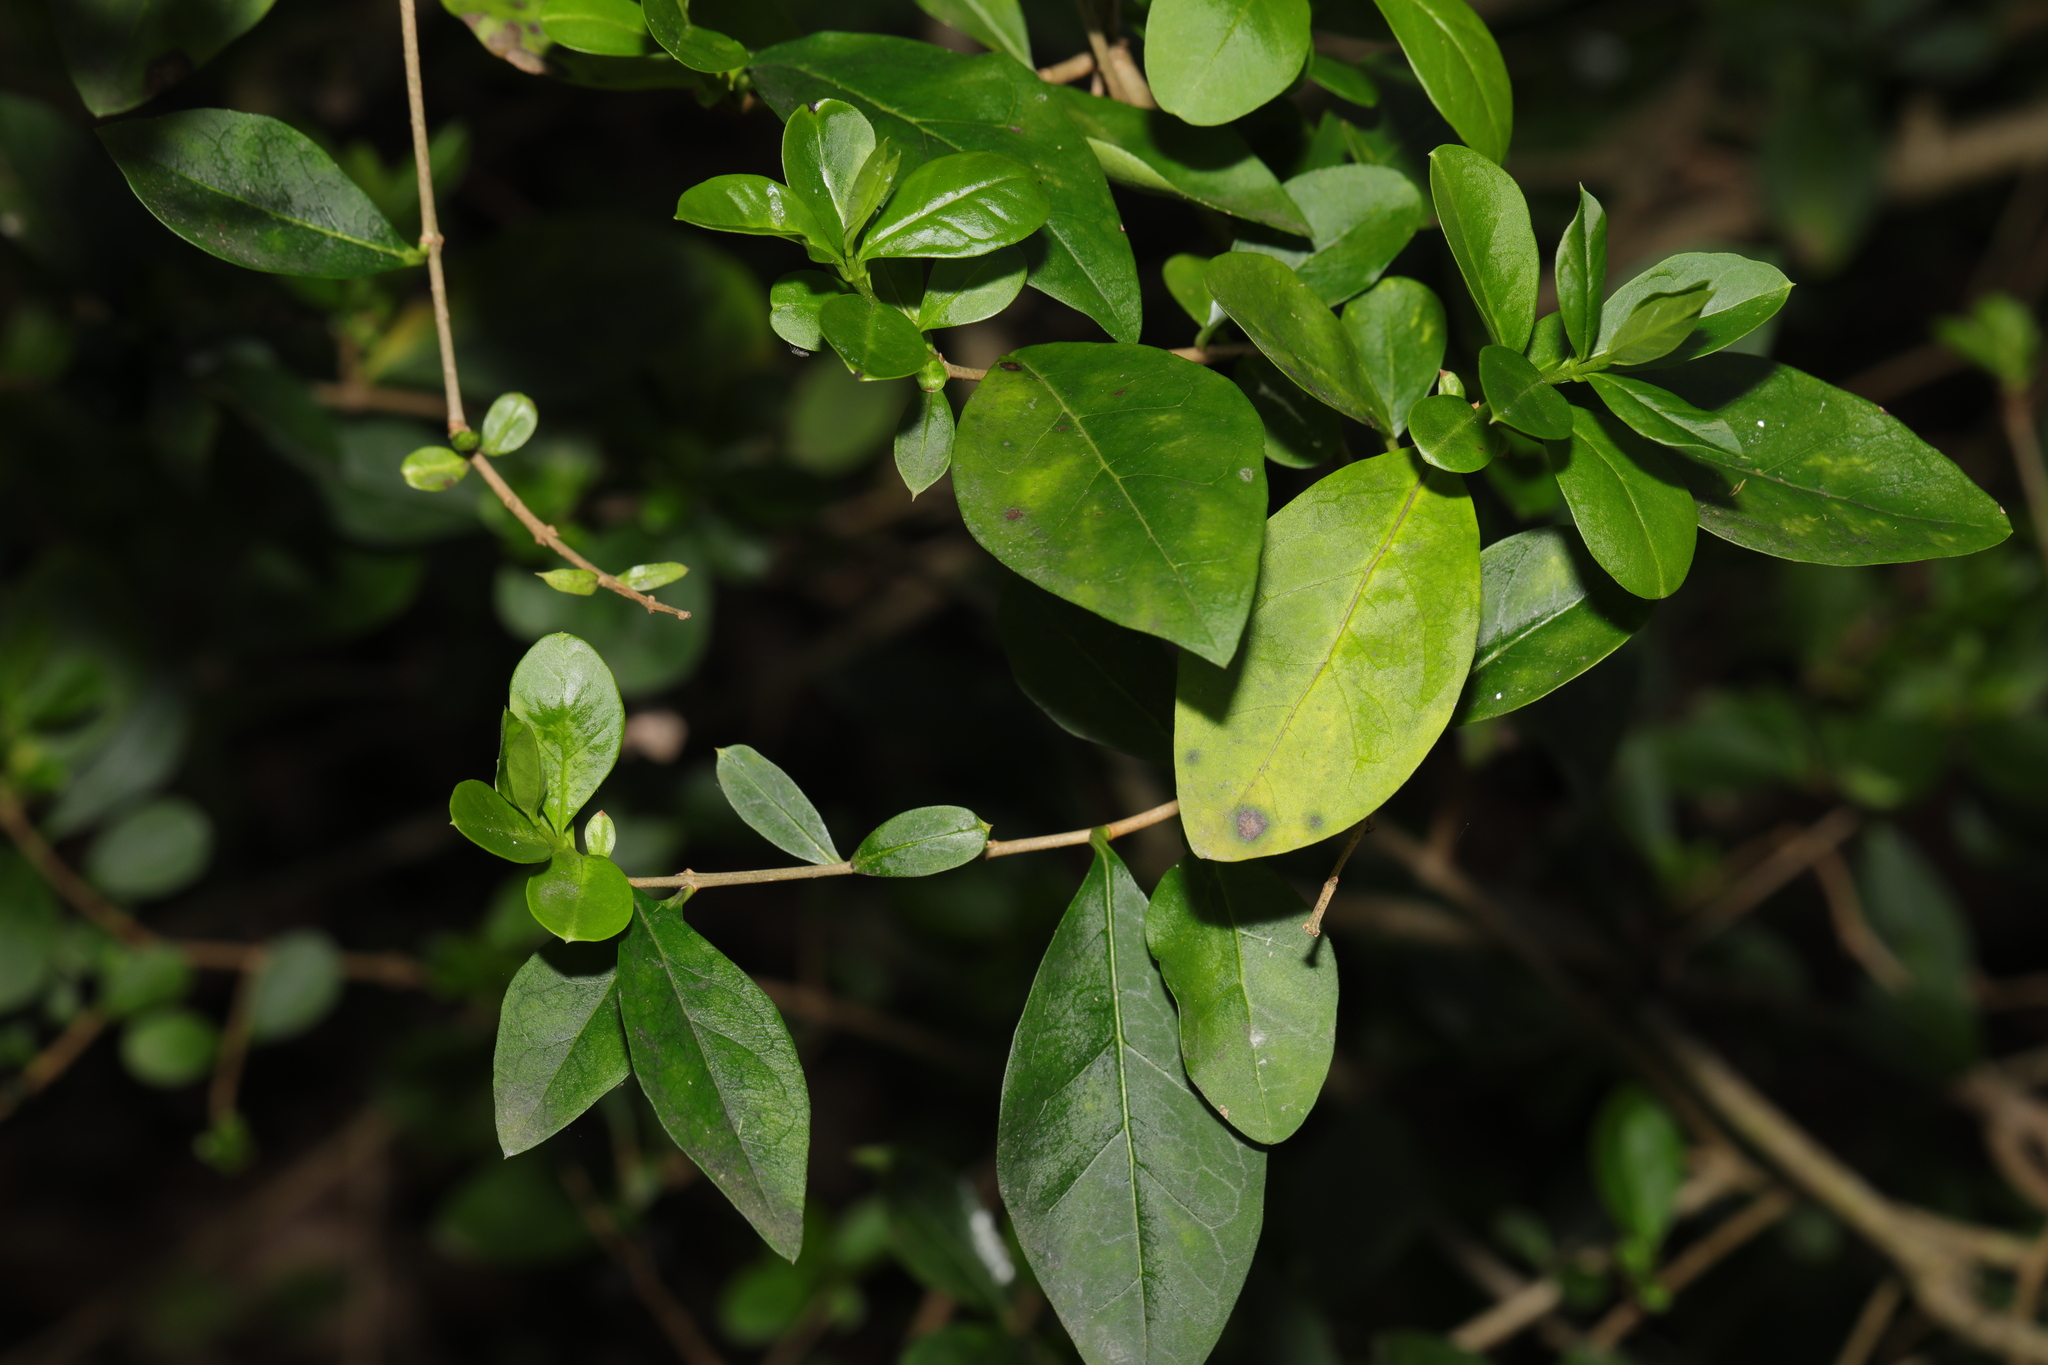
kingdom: Plantae
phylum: Tracheophyta
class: Magnoliopsida
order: Lamiales
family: Oleaceae
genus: Ligustrum
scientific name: Ligustrum ovalifolium
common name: California privet
